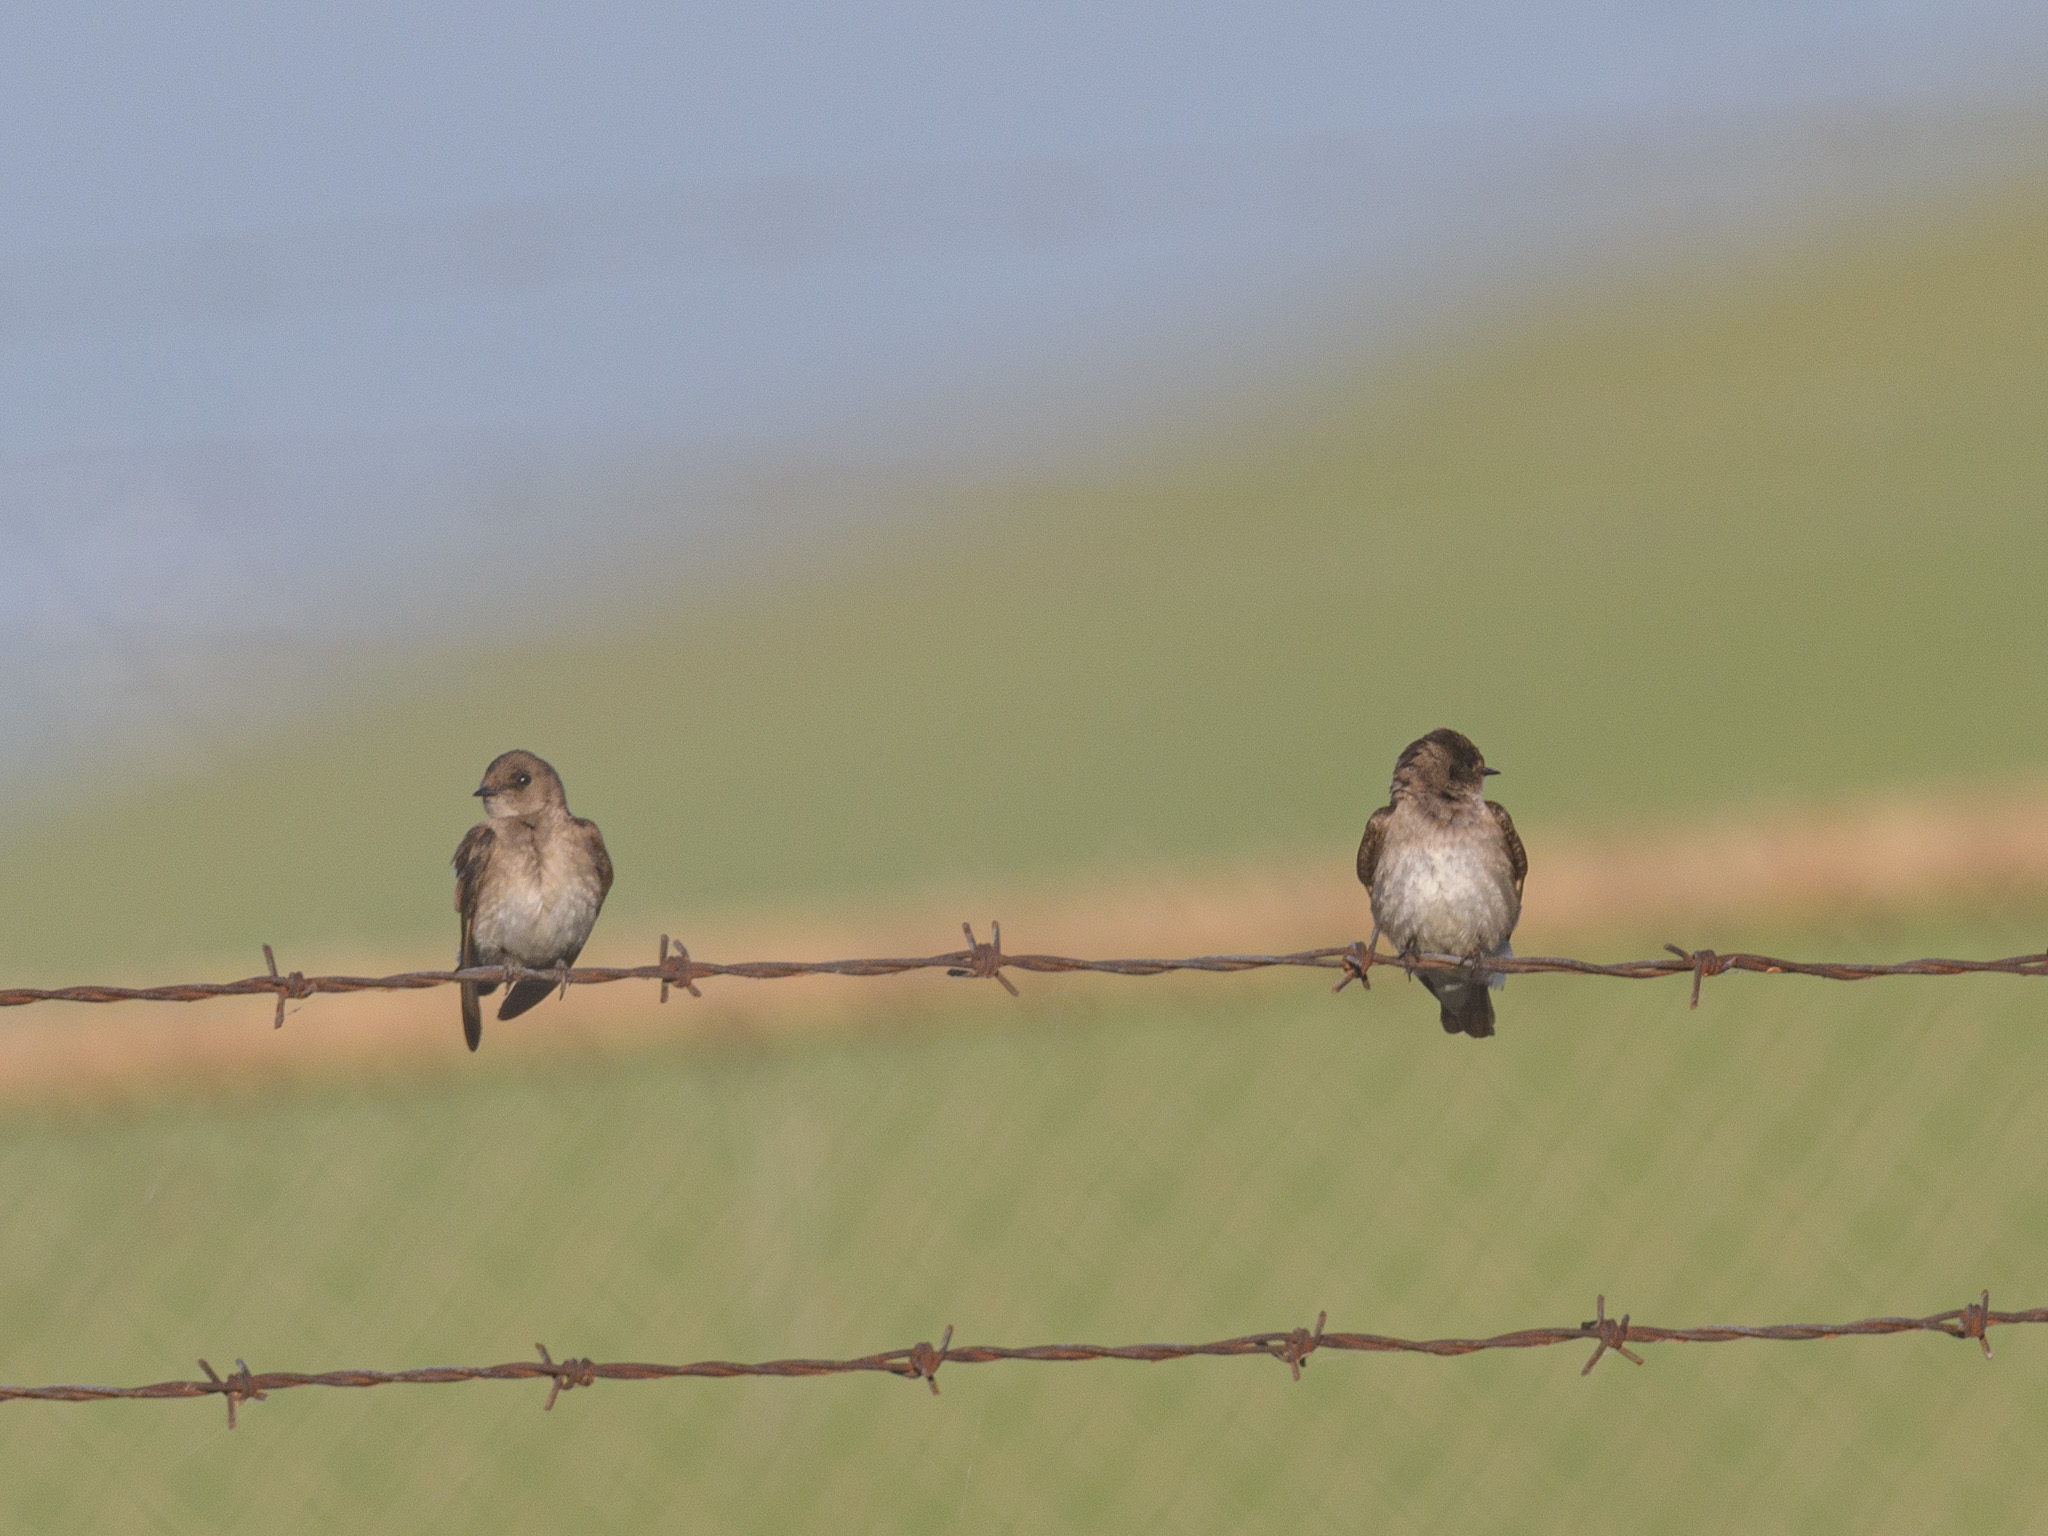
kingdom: Animalia
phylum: Chordata
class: Aves
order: Passeriformes
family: Hirundinidae
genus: Stelgidopteryx
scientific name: Stelgidopteryx serripennis
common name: Northern rough-winged swallow
